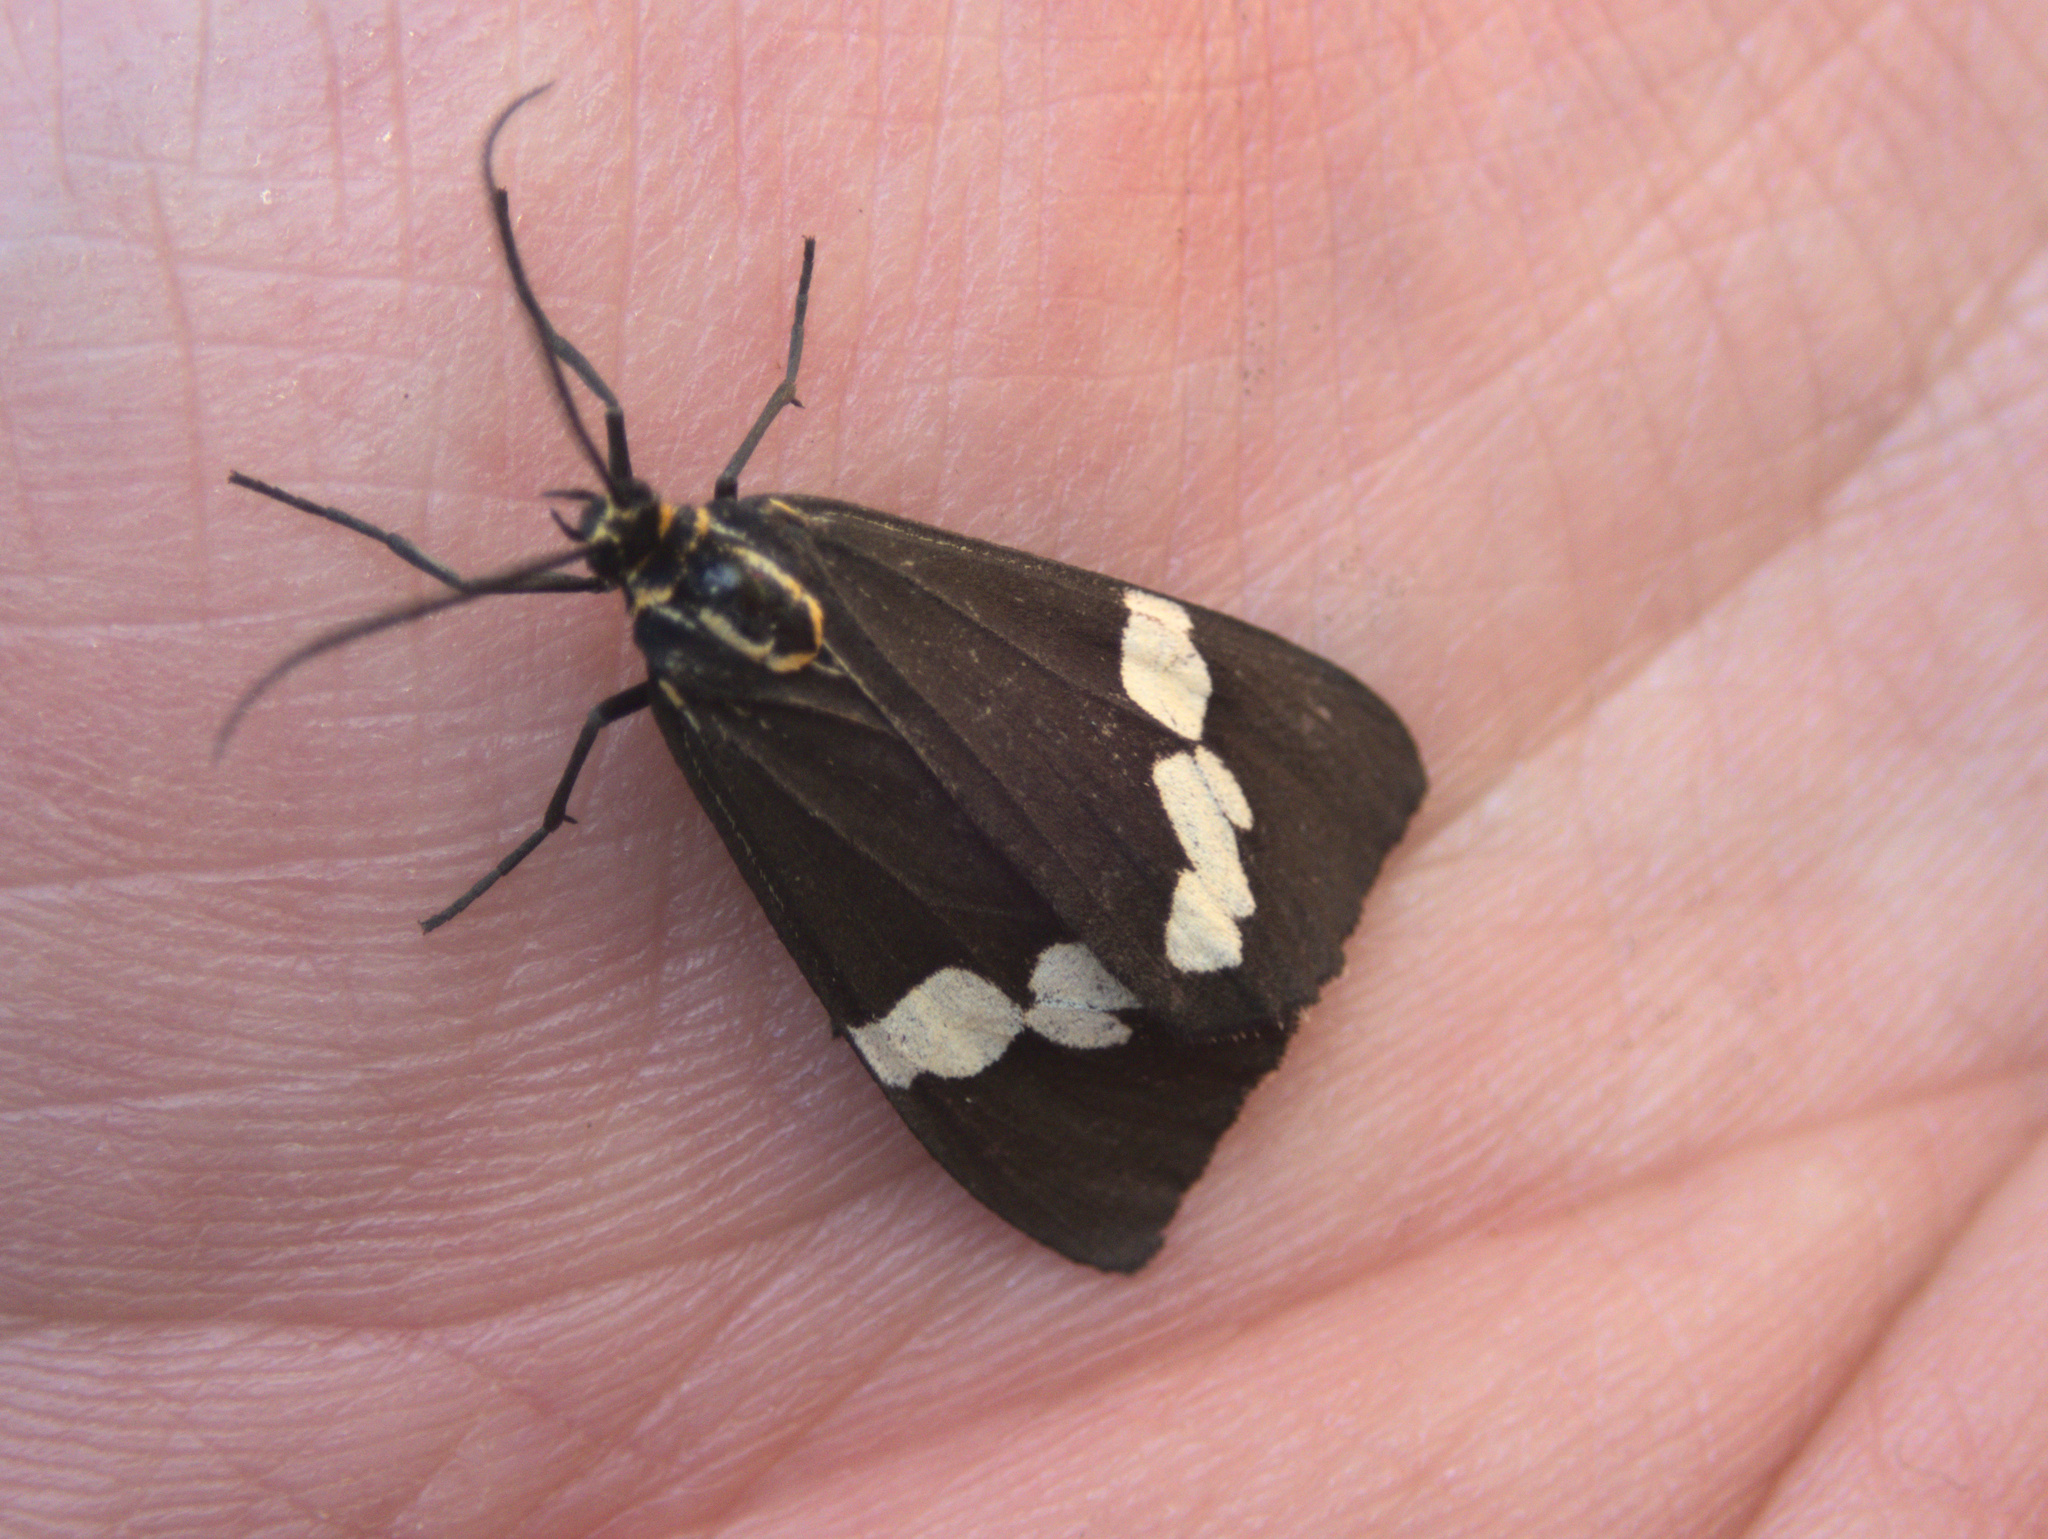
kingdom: Animalia
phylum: Arthropoda
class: Insecta
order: Lepidoptera
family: Erebidae
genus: Nyctemera
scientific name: Nyctemera
